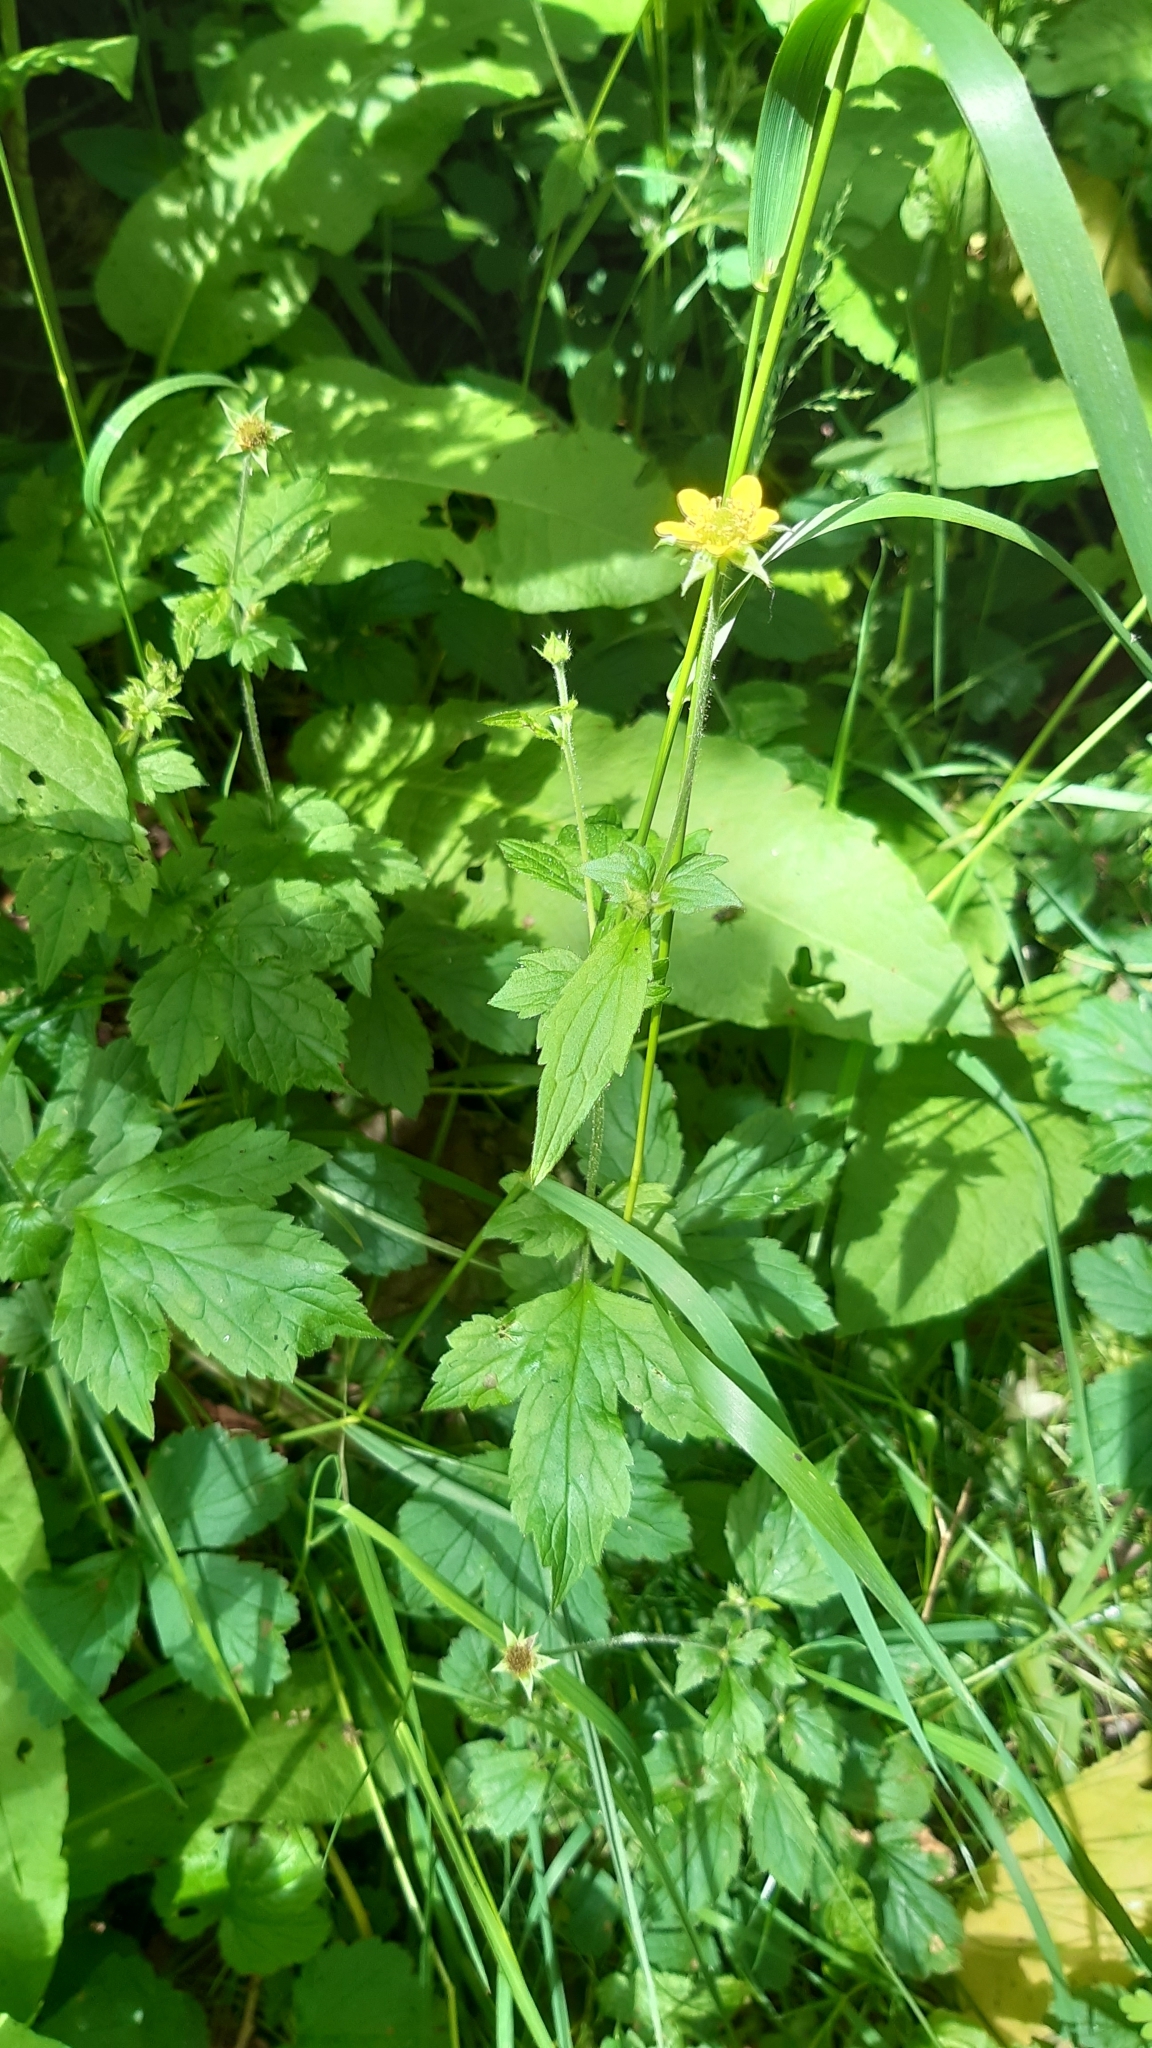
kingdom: Plantae
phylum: Tracheophyta
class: Magnoliopsida
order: Rosales
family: Rosaceae
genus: Geum
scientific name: Geum urbanum
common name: Wood avens
